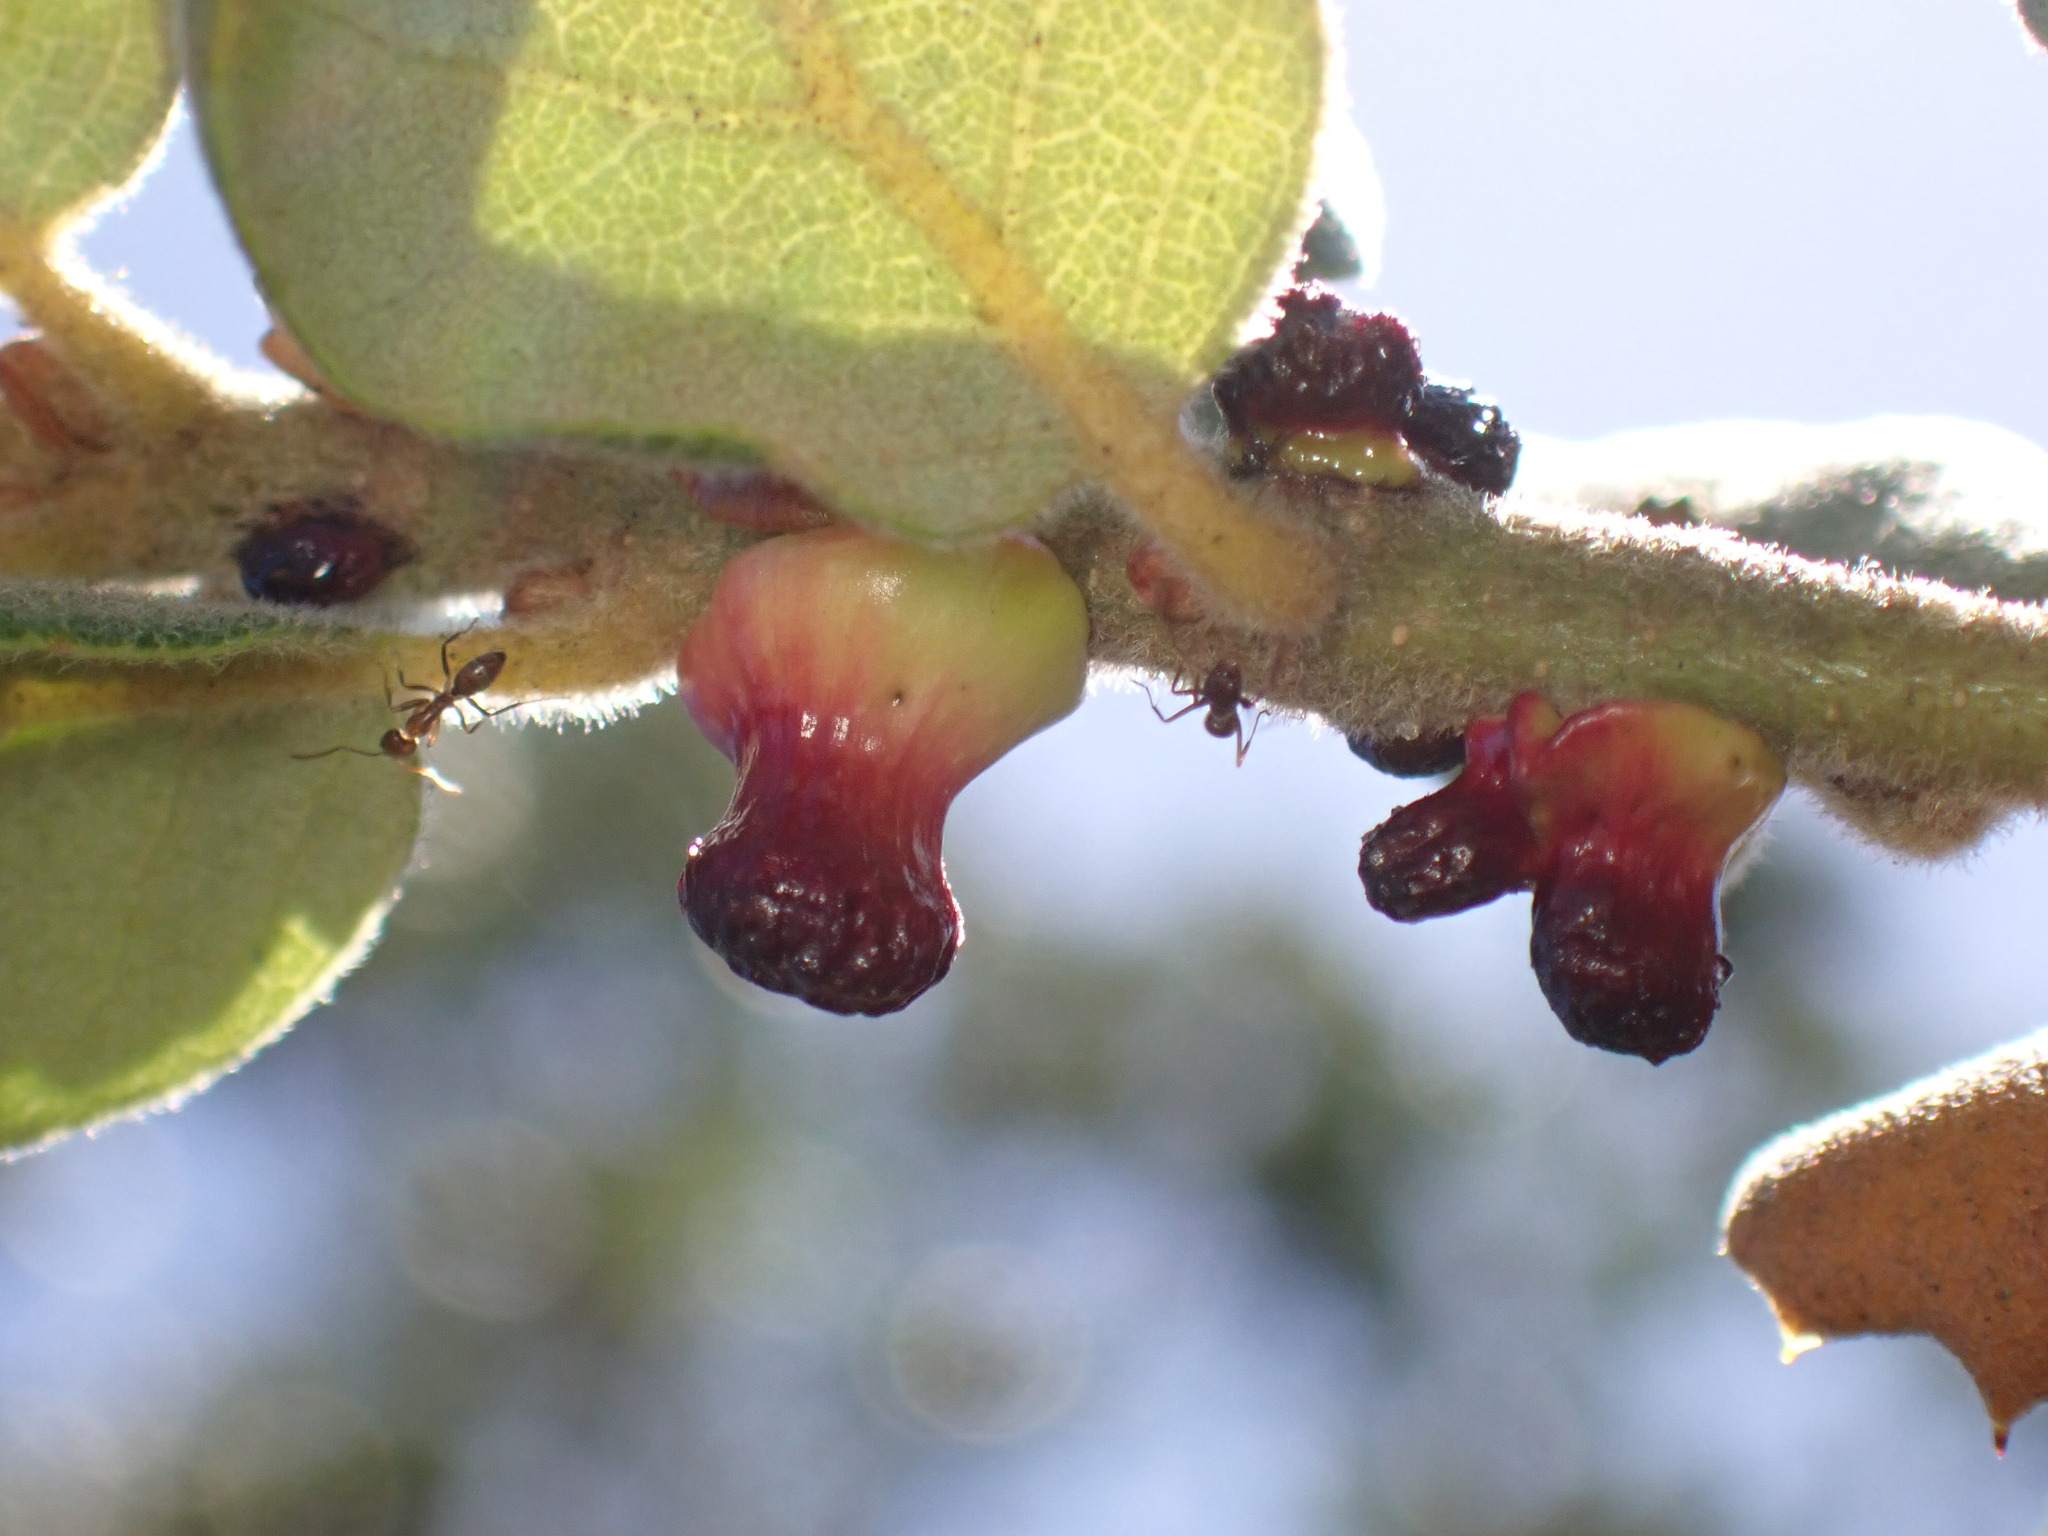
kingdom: Animalia
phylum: Arthropoda
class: Insecta
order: Hymenoptera
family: Cynipidae
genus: Disholcaspis
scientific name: Disholcaspis prehensa
